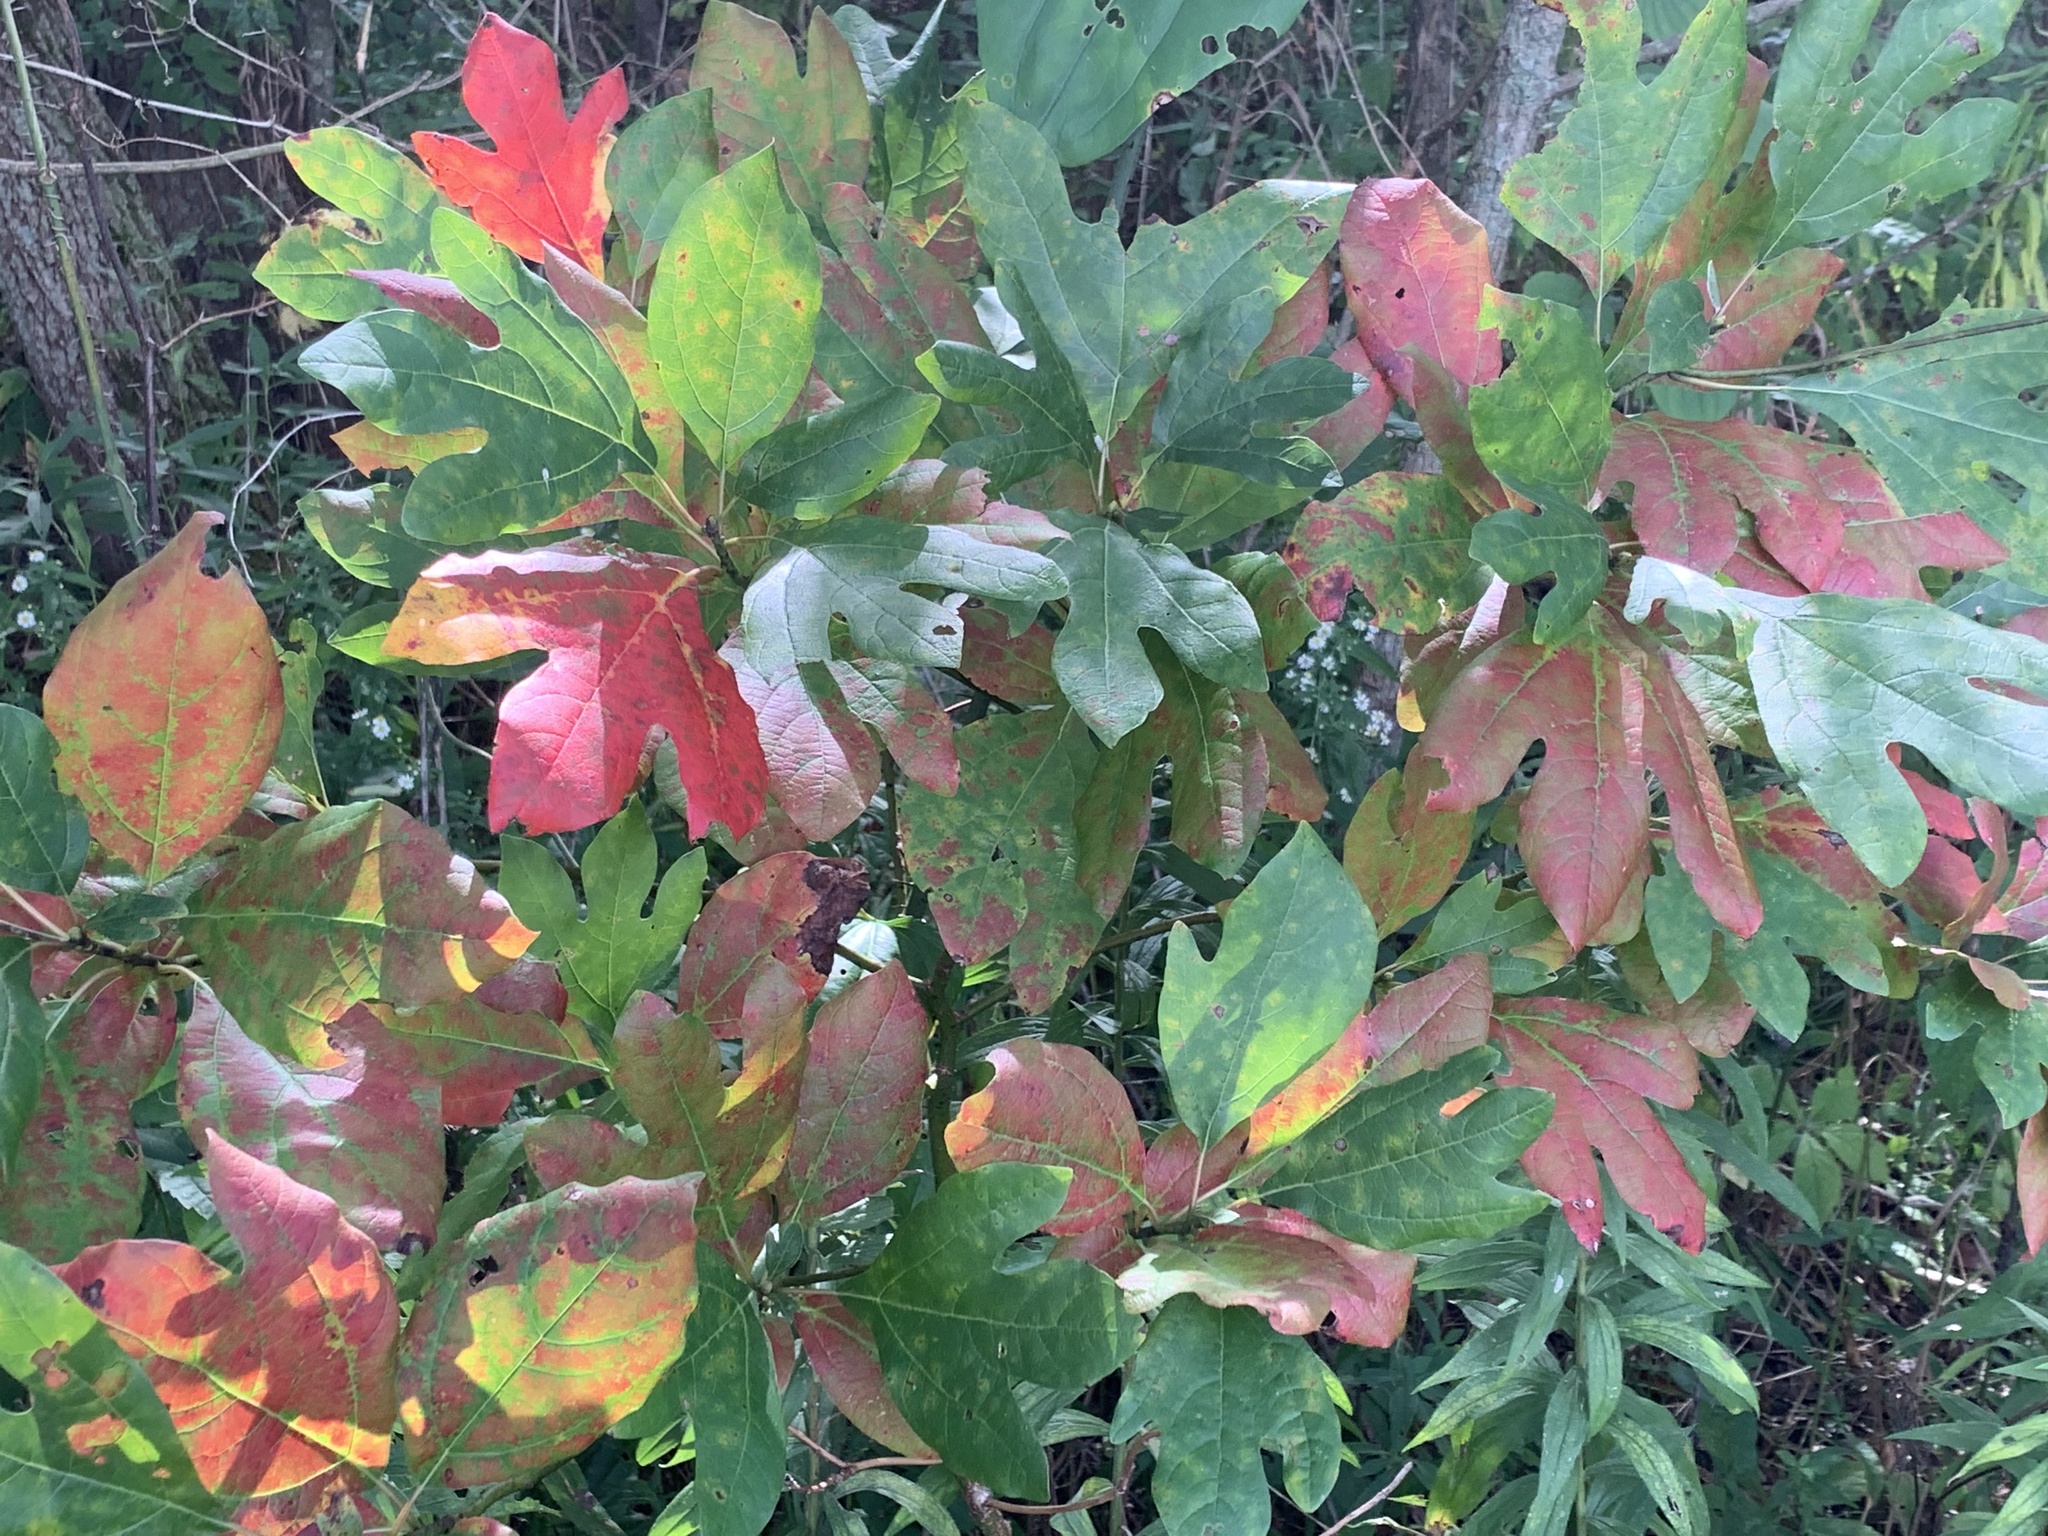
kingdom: Plantae
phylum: Tracheophyta
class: Magnoliopsida
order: Laurales
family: Lauraceae
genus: Sassafras
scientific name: Sassafras albidum
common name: Sassafras
